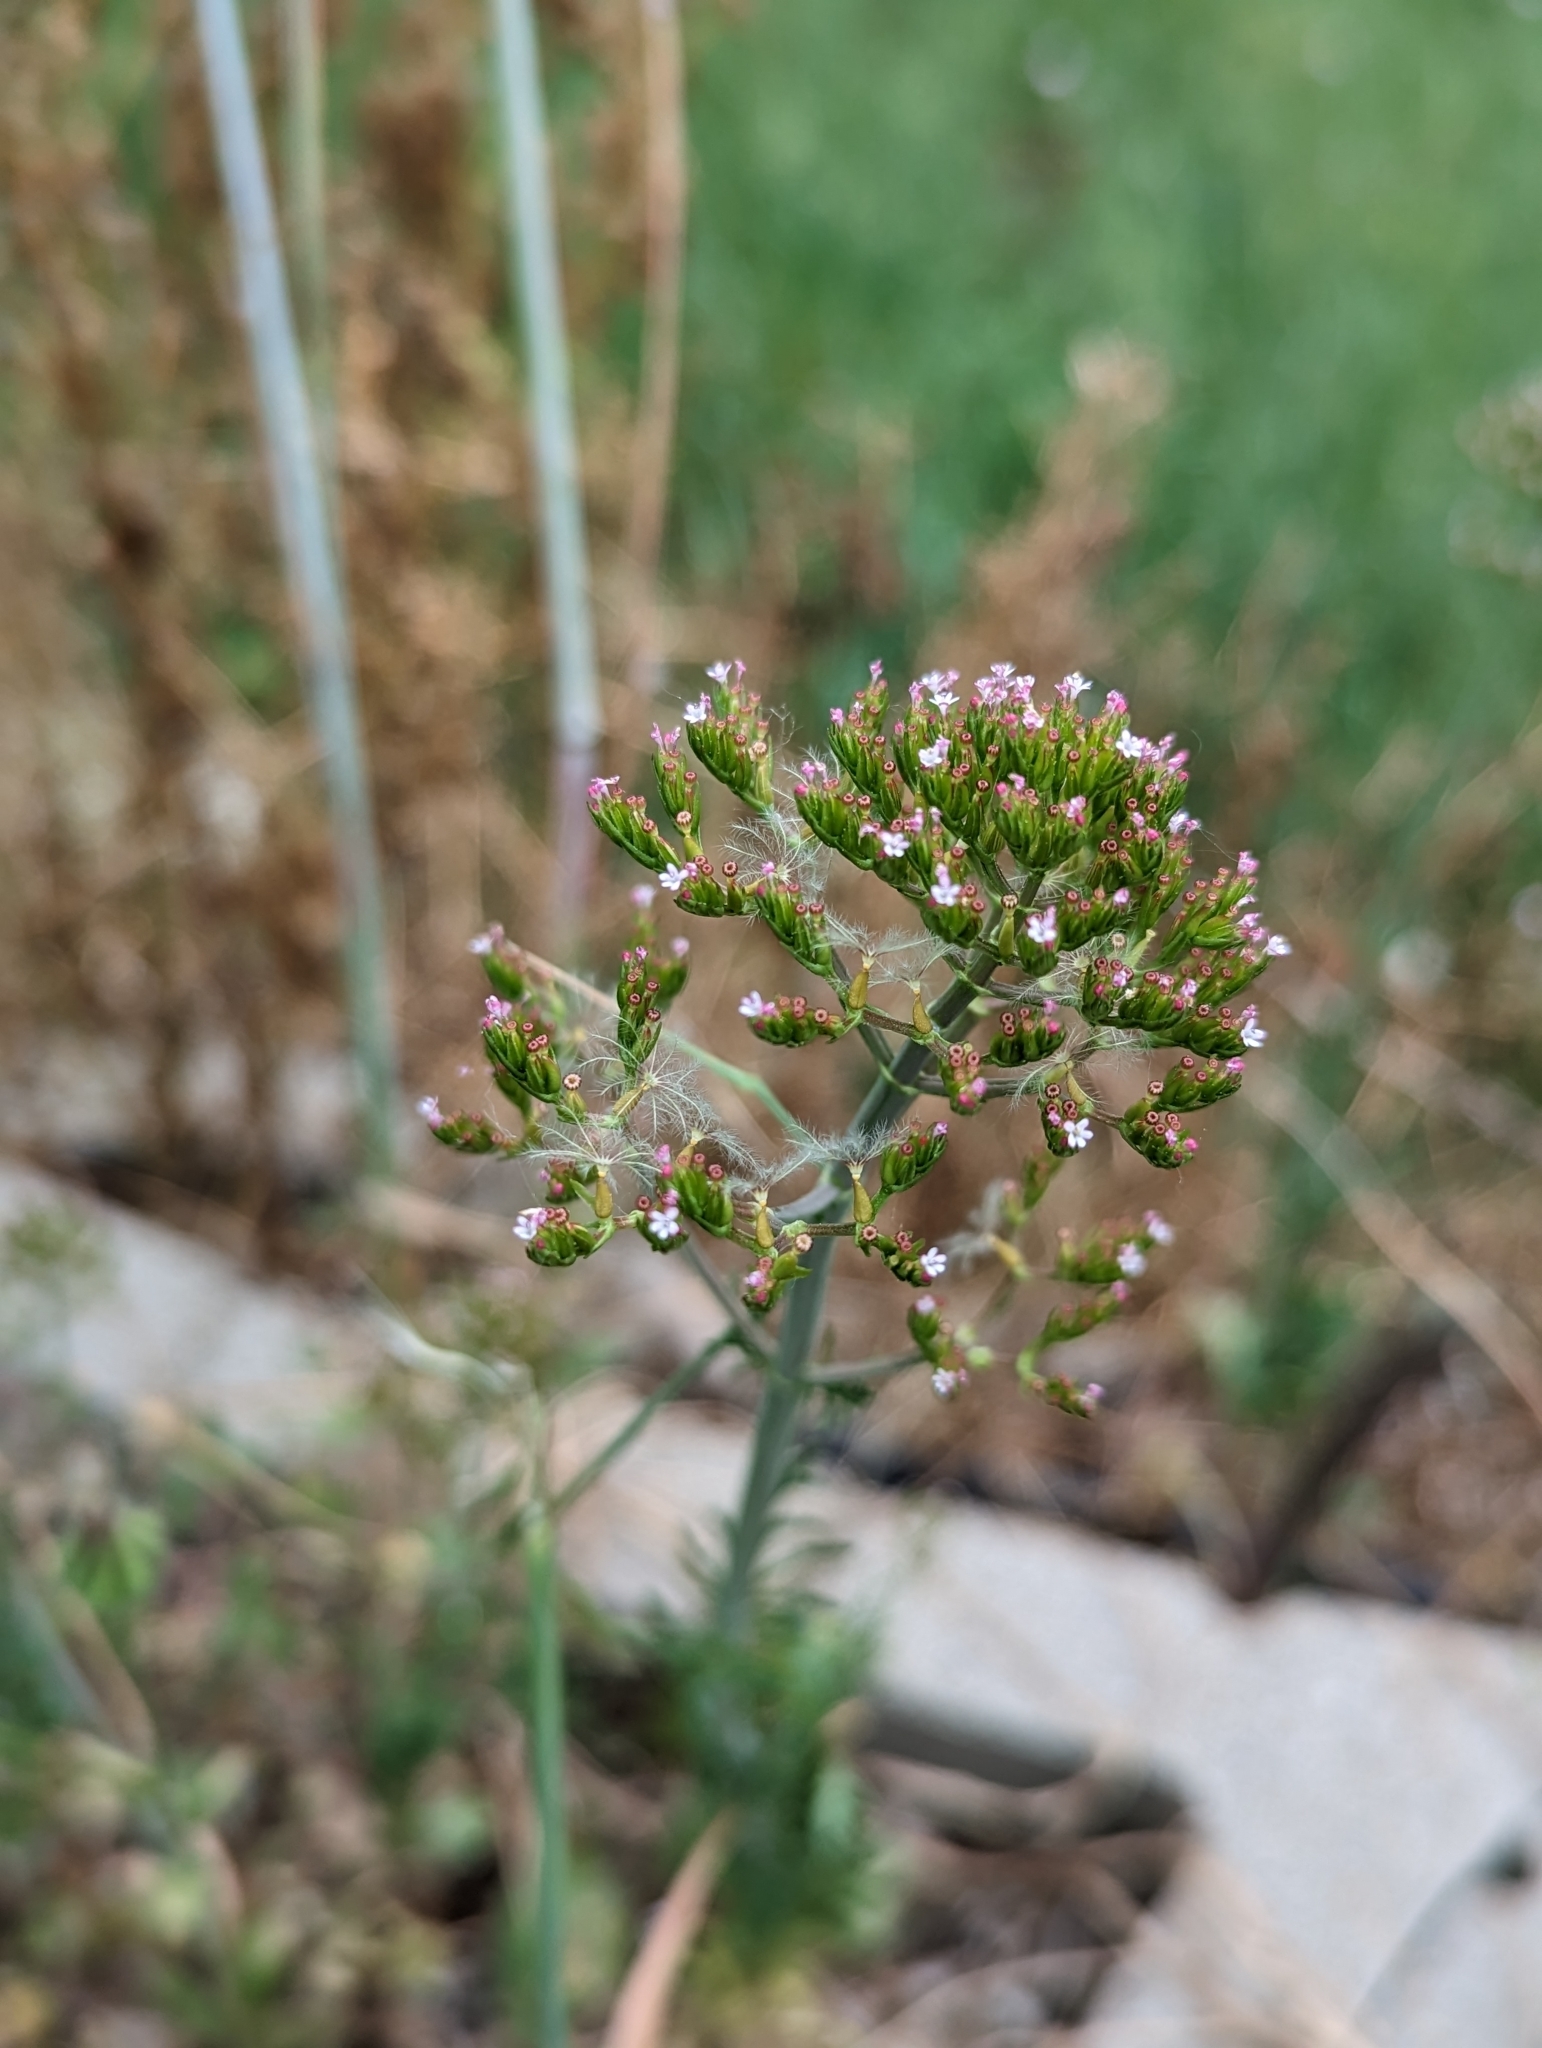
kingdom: Plantae
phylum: Tracheophyta
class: Magnoliopsida
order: Dipsacales
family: Caprifoliaceae
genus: Centranthus
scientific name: Centranthus calcitrapae
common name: Annual valerian
